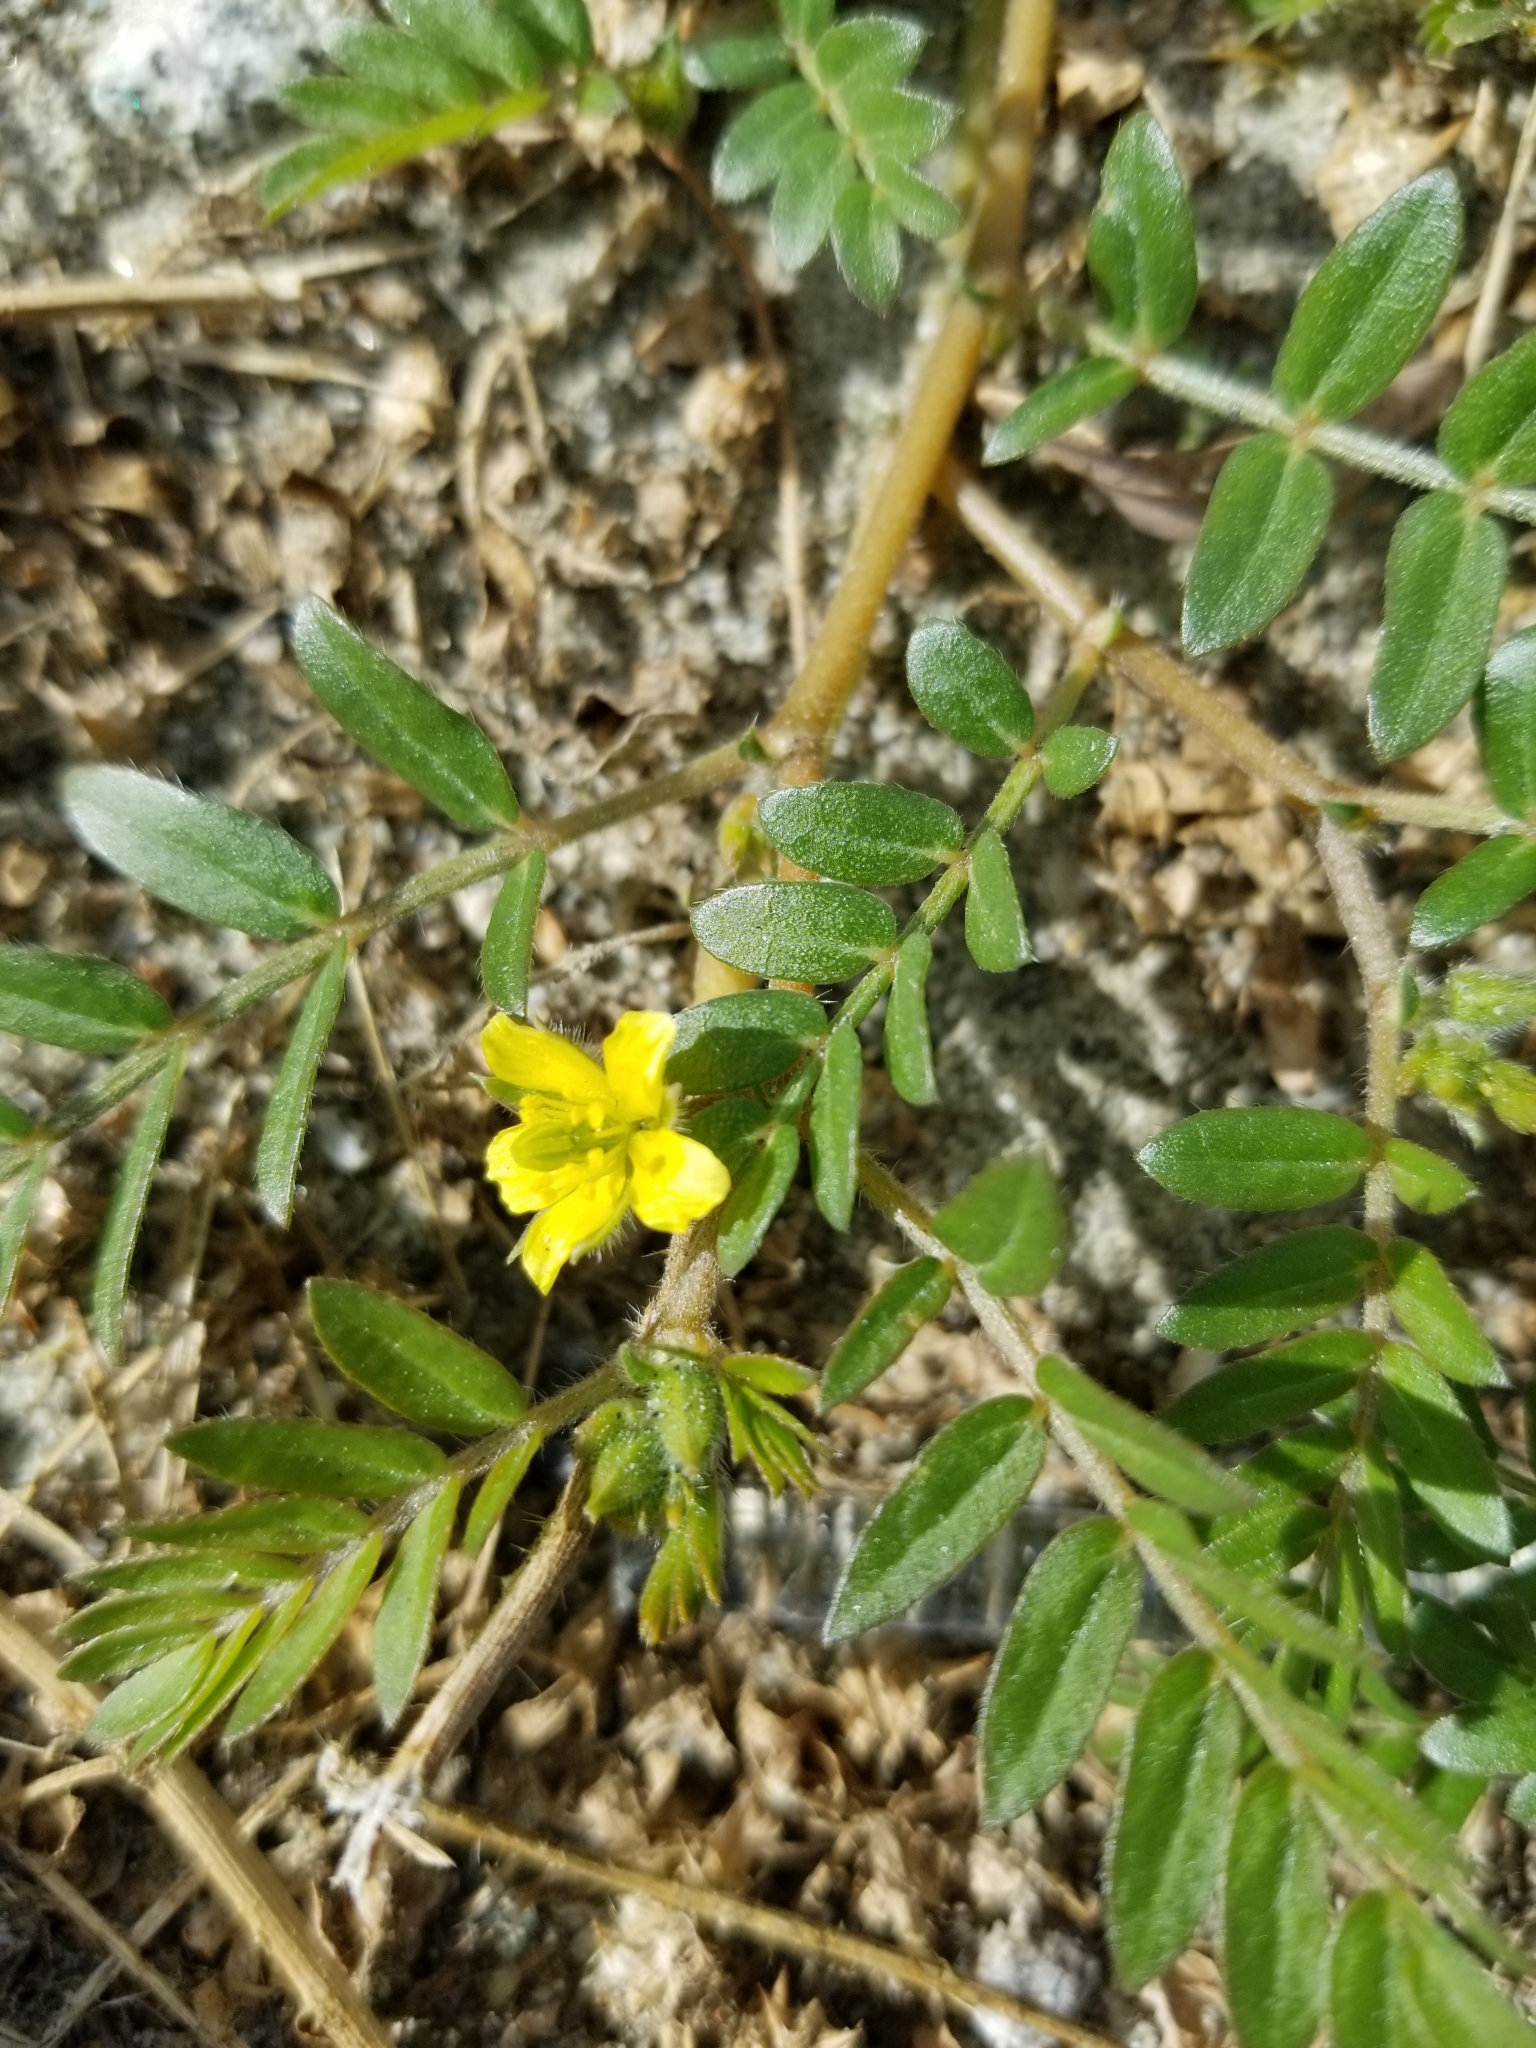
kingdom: Plantae
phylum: Tracheophyta
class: Magnoliopsida
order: Zygophyllales
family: Zygophyllaceae
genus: Tribulus
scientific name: Tribulus terrestris
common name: Puncturevine
